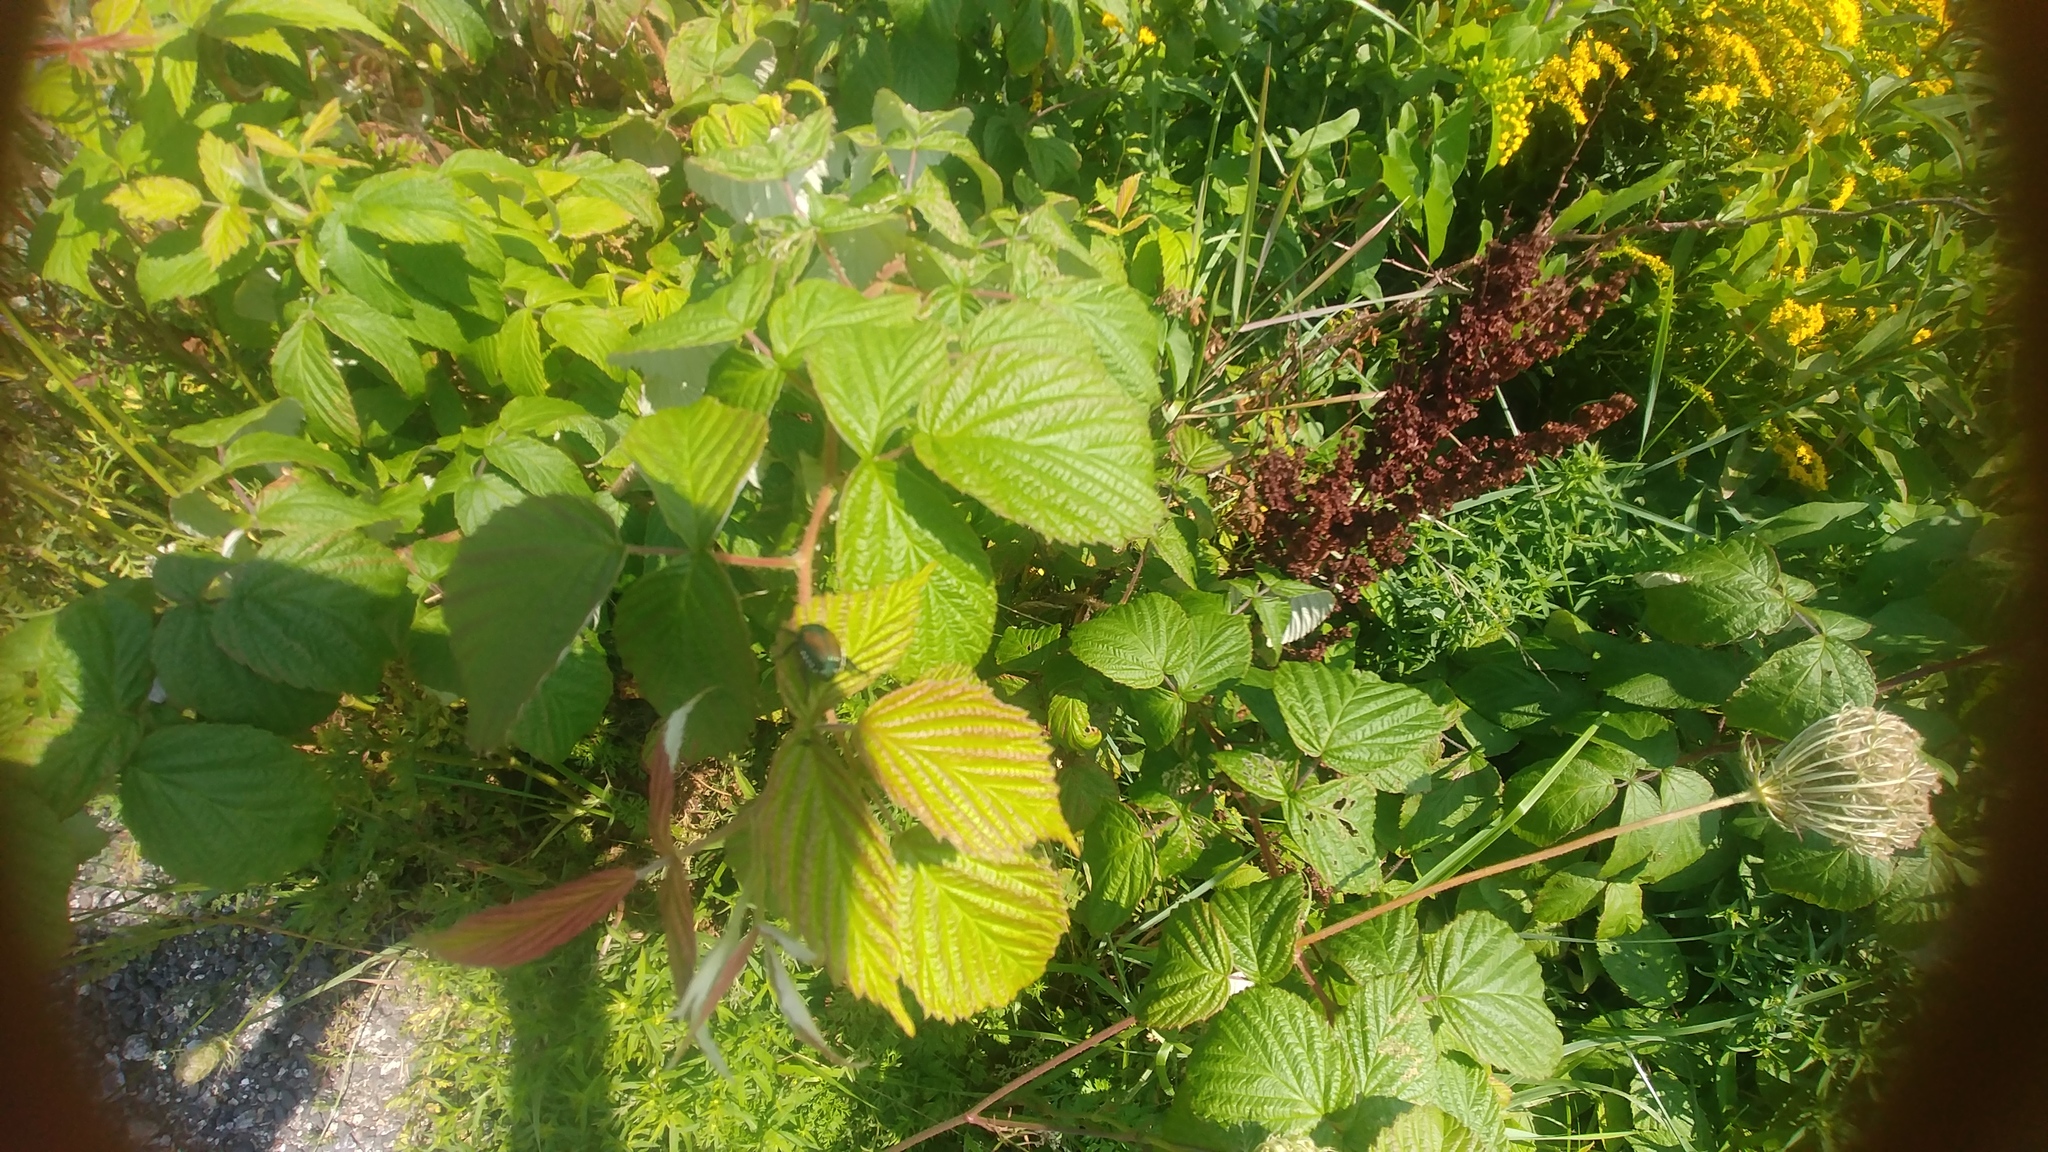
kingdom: Animalia
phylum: Arthropoda
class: Insecta
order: Coleoptera
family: Scarabaeidae
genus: Popillia
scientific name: Popillia japonica
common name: Japanese beetle
